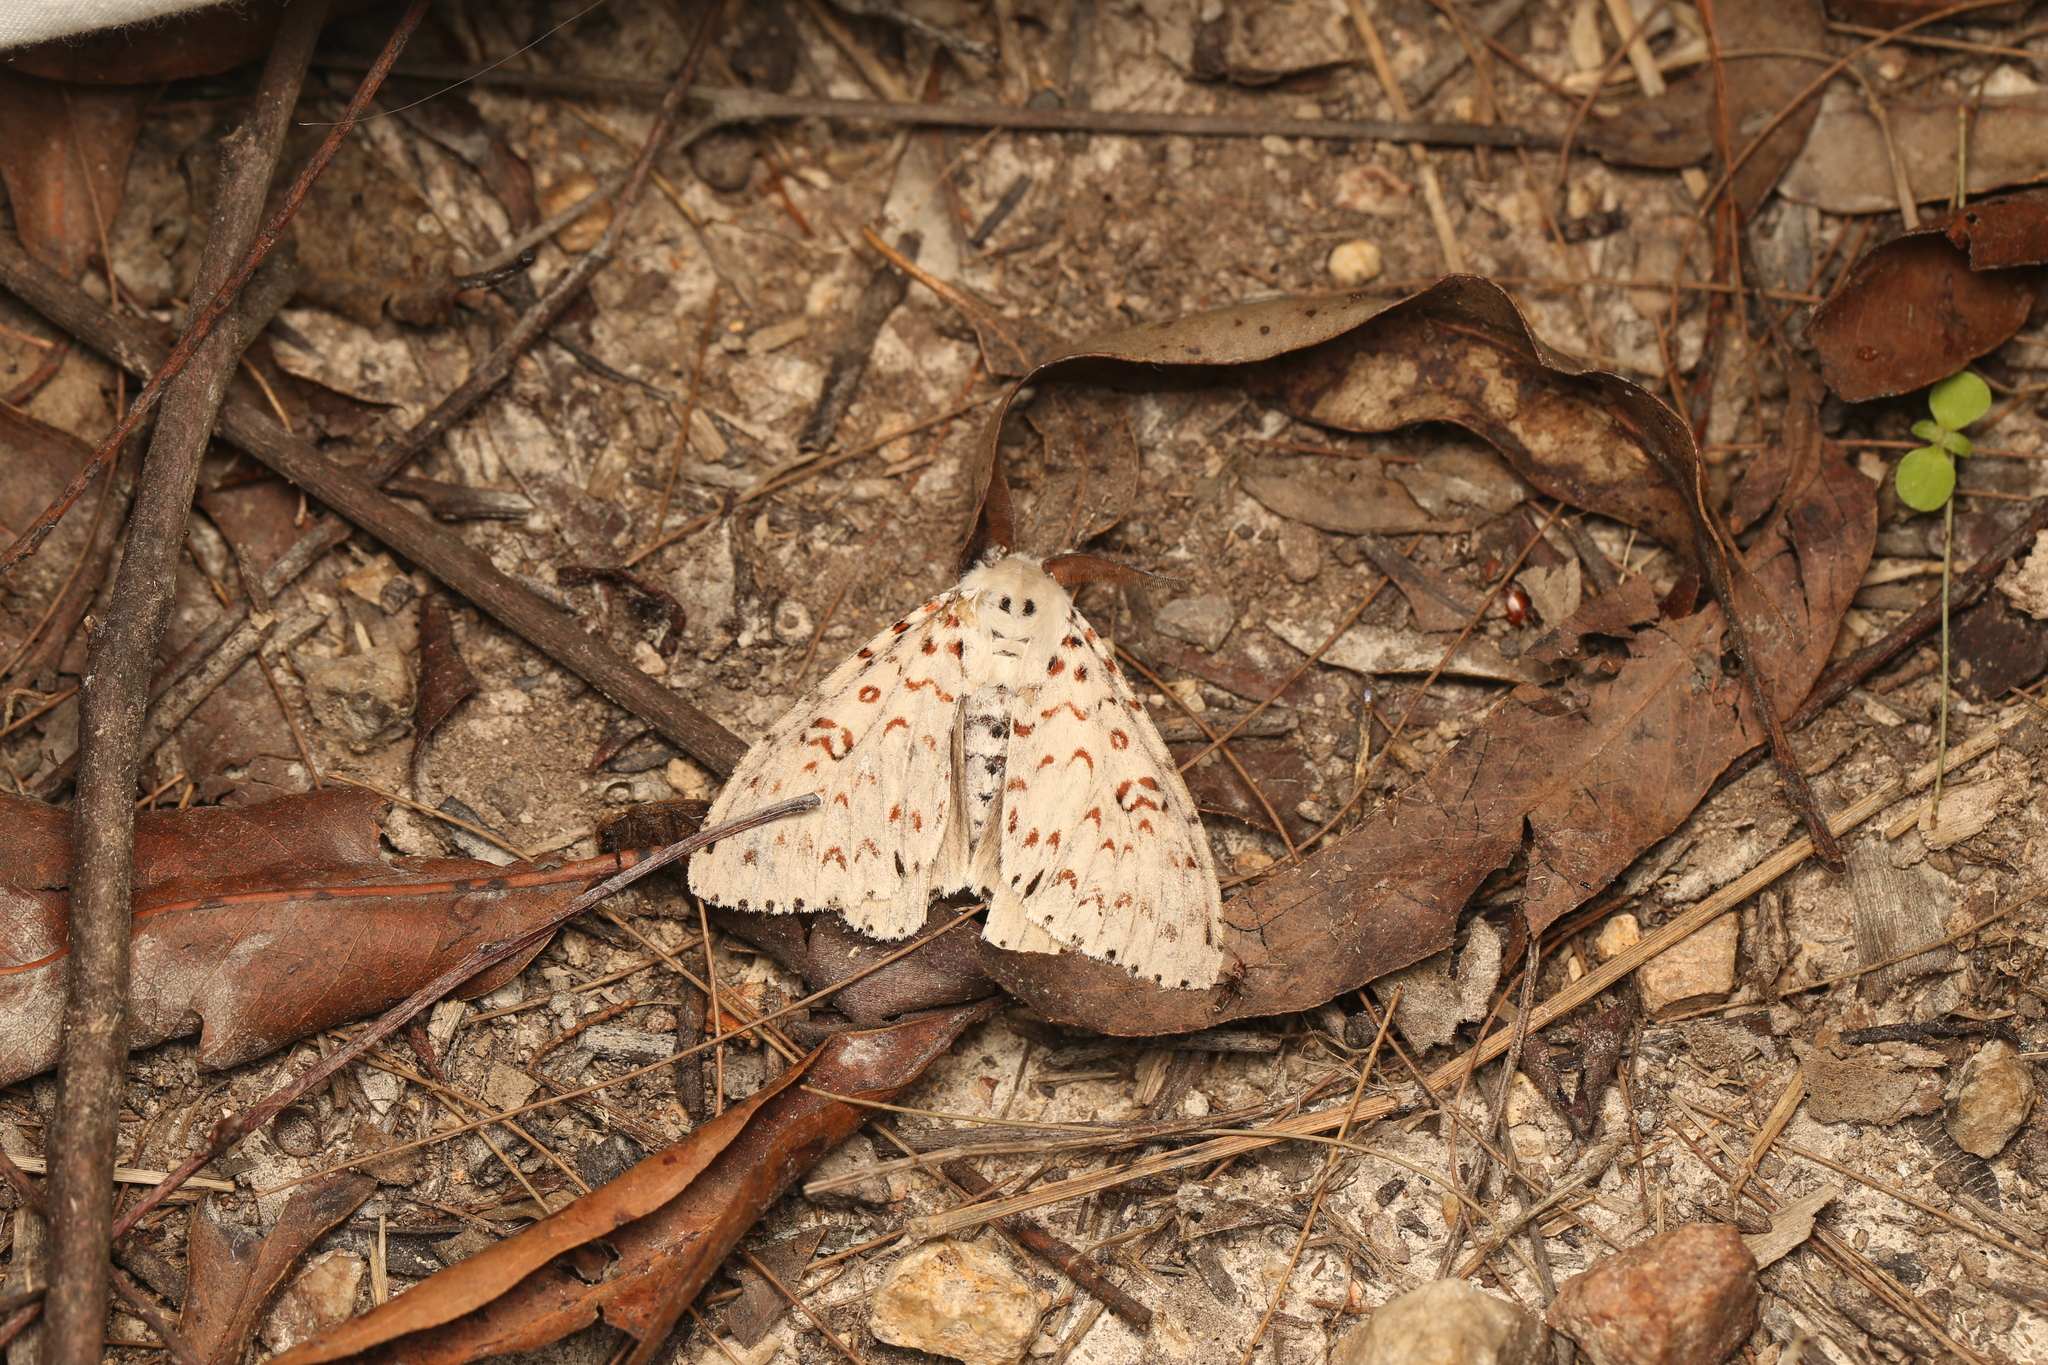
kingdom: Animalia
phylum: Arthropoda
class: Insecta
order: Lepidoptera
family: Erebidae
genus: Lymantria
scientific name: Lymantria nephrographa
